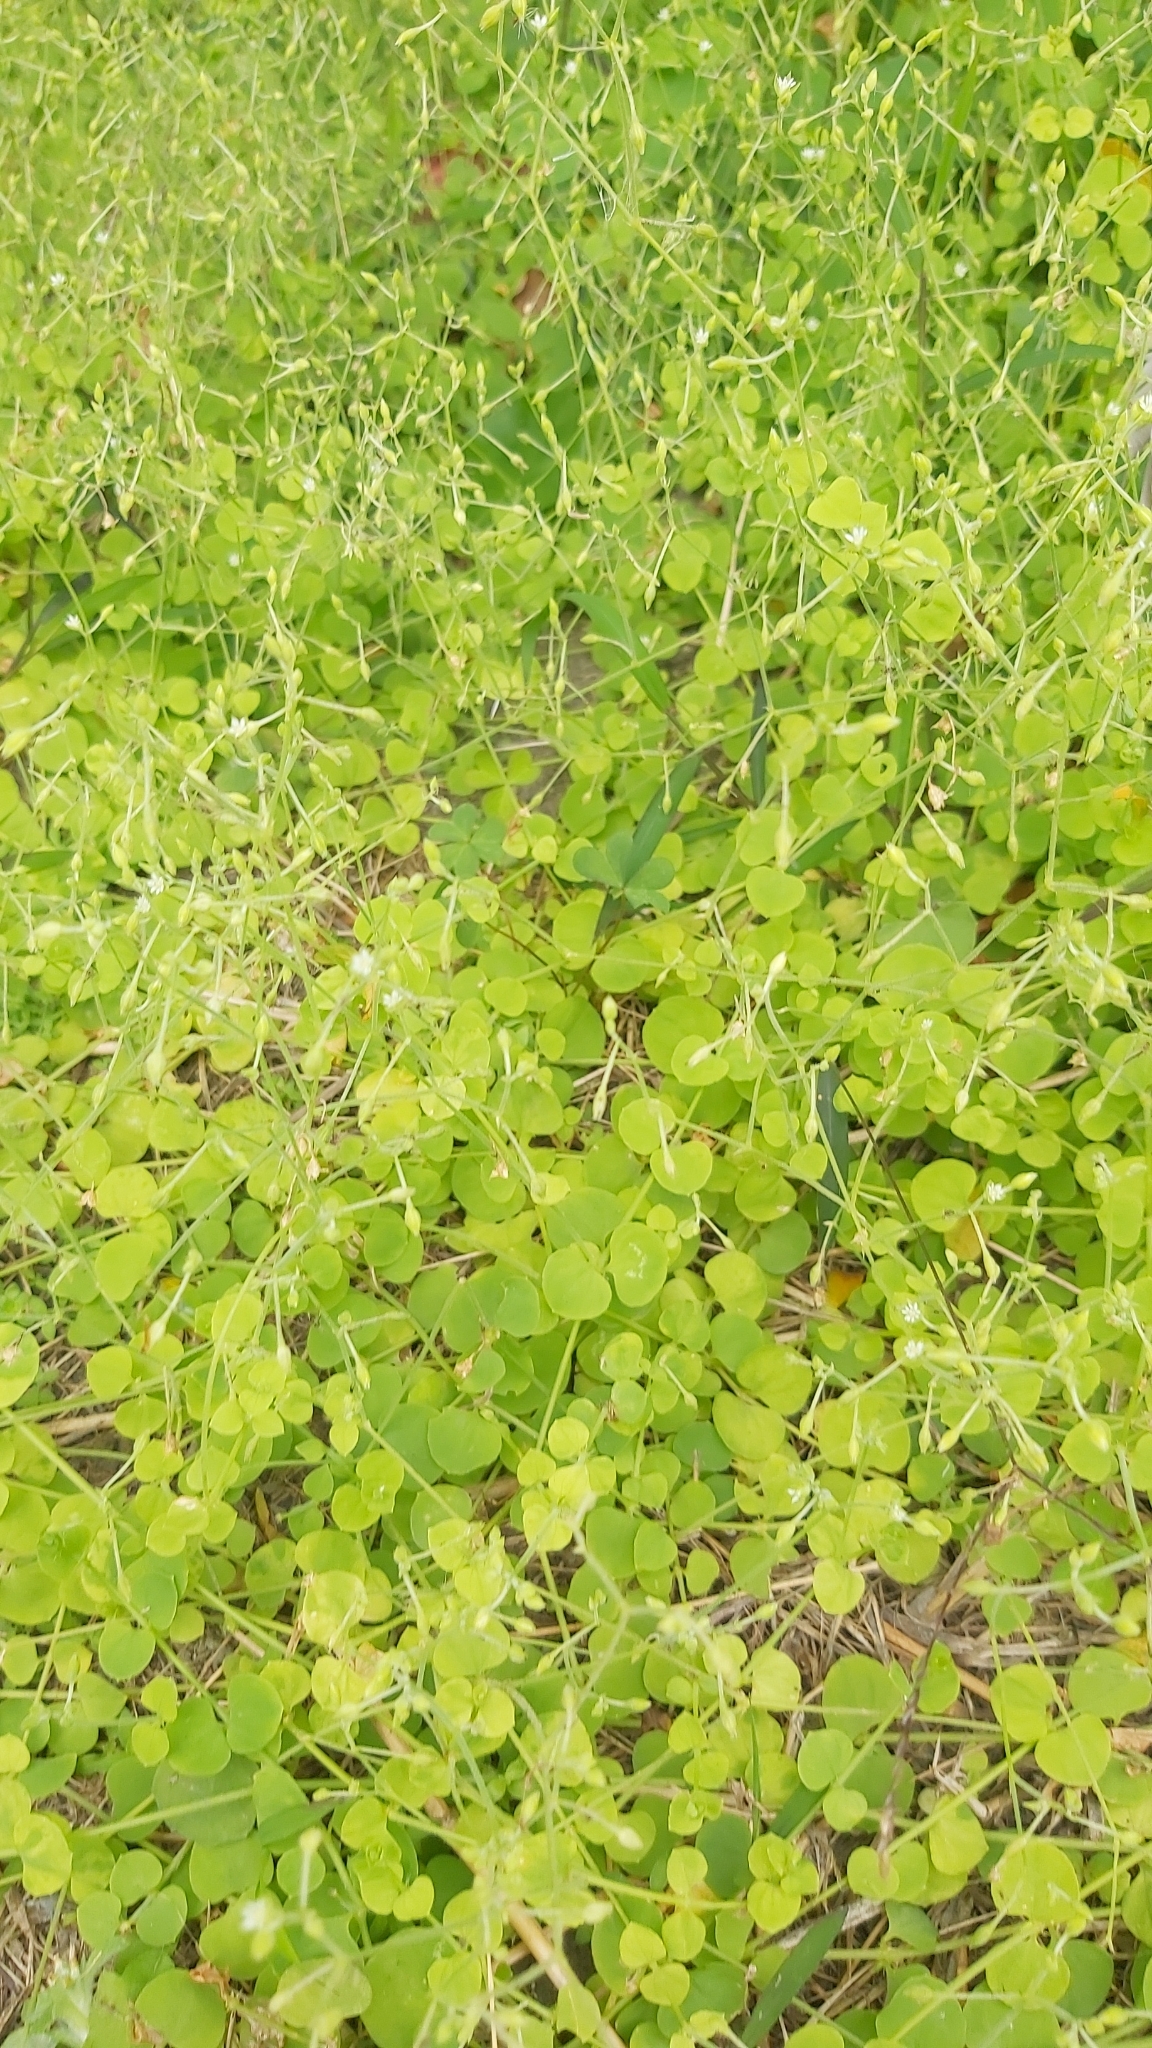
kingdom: Plantae
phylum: Tracheophyta
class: Magnoliopsida
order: Caryophyllales
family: Caryophyllaceae
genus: Drymaria
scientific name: Drymaria cordata
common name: Whitesnow
